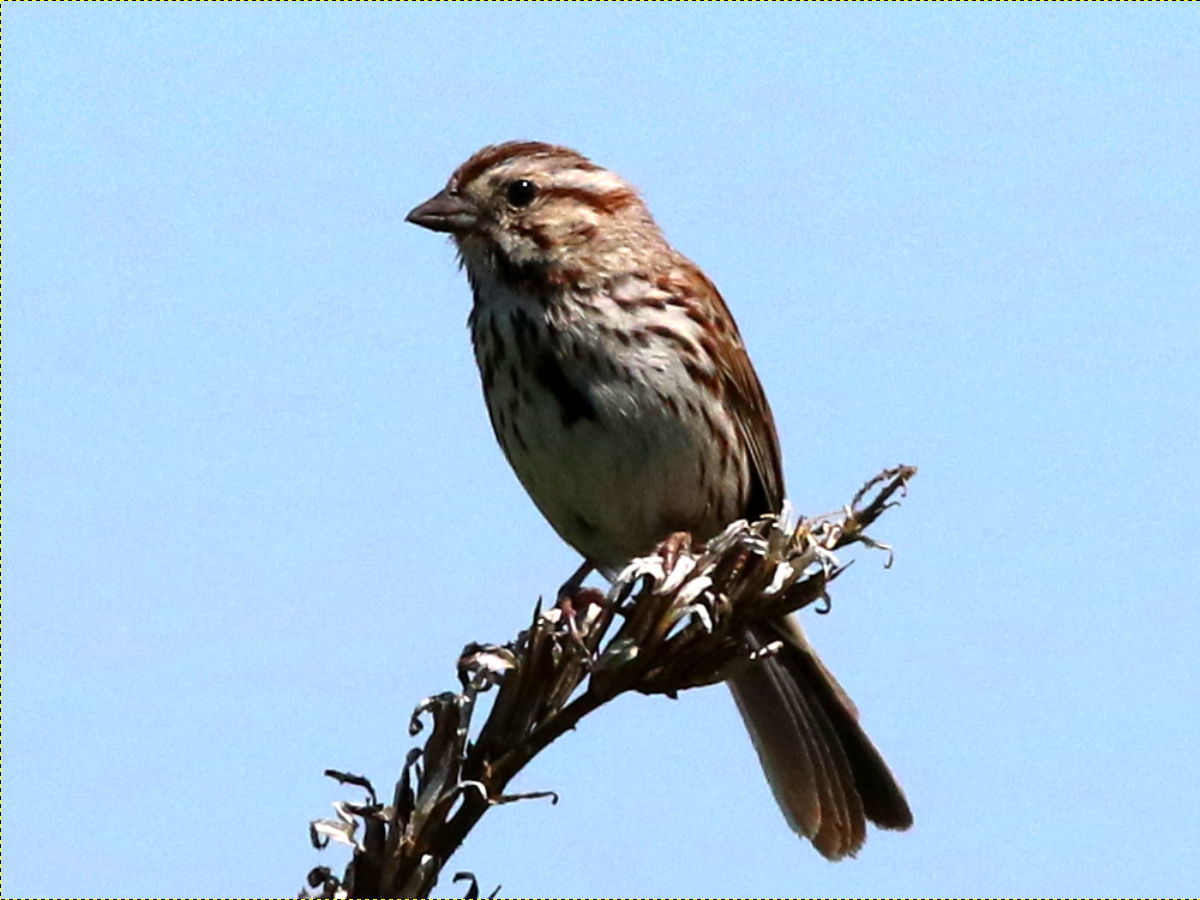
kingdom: Animalia
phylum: Chordata
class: Aves
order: Passeriformes
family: Passerellidae
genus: Melospiza
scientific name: Melospiza melodia
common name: Song sparrow
